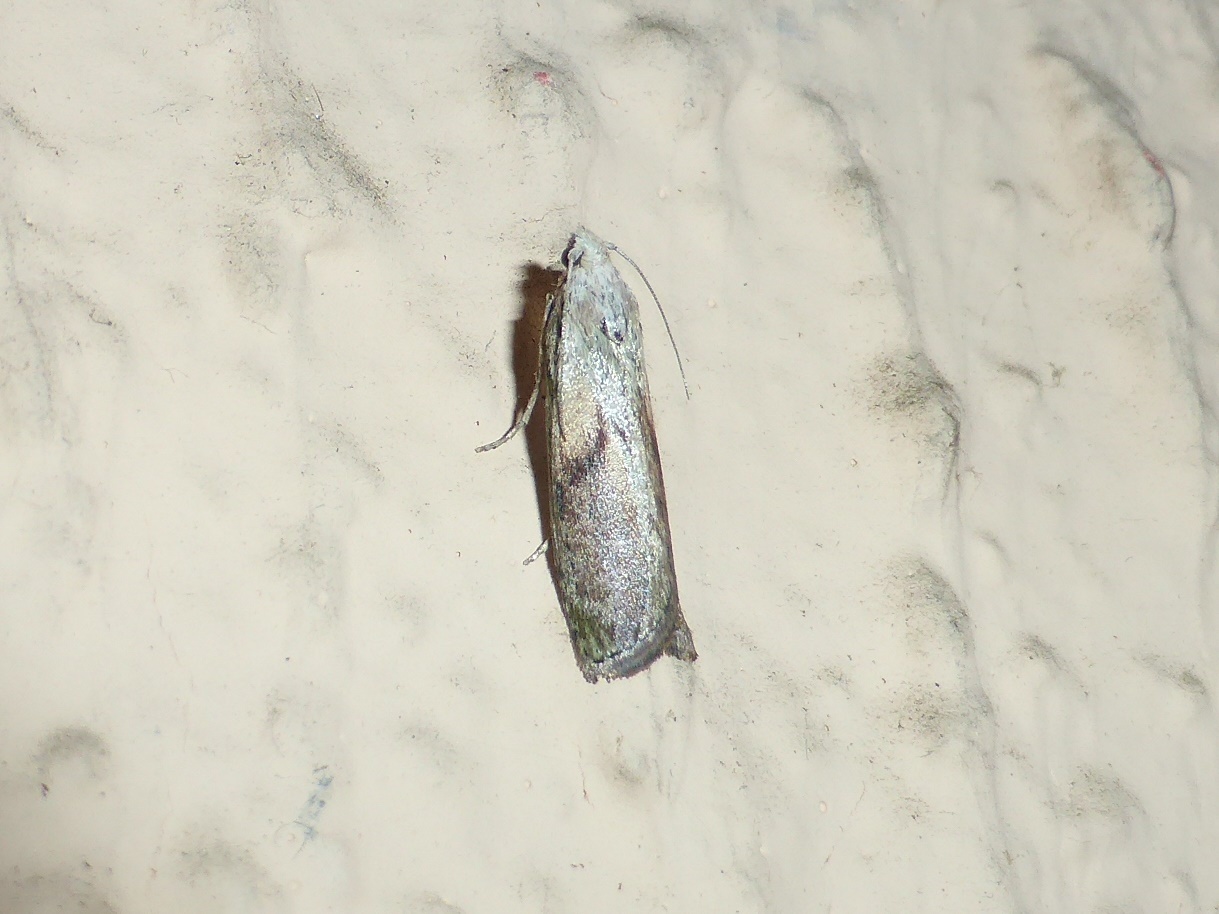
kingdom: Animalia
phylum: Arthropoda
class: Insecta
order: Lepidoptera
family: Pyralidae
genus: Aphomia
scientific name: Aphomia sociella
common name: Bee moth
